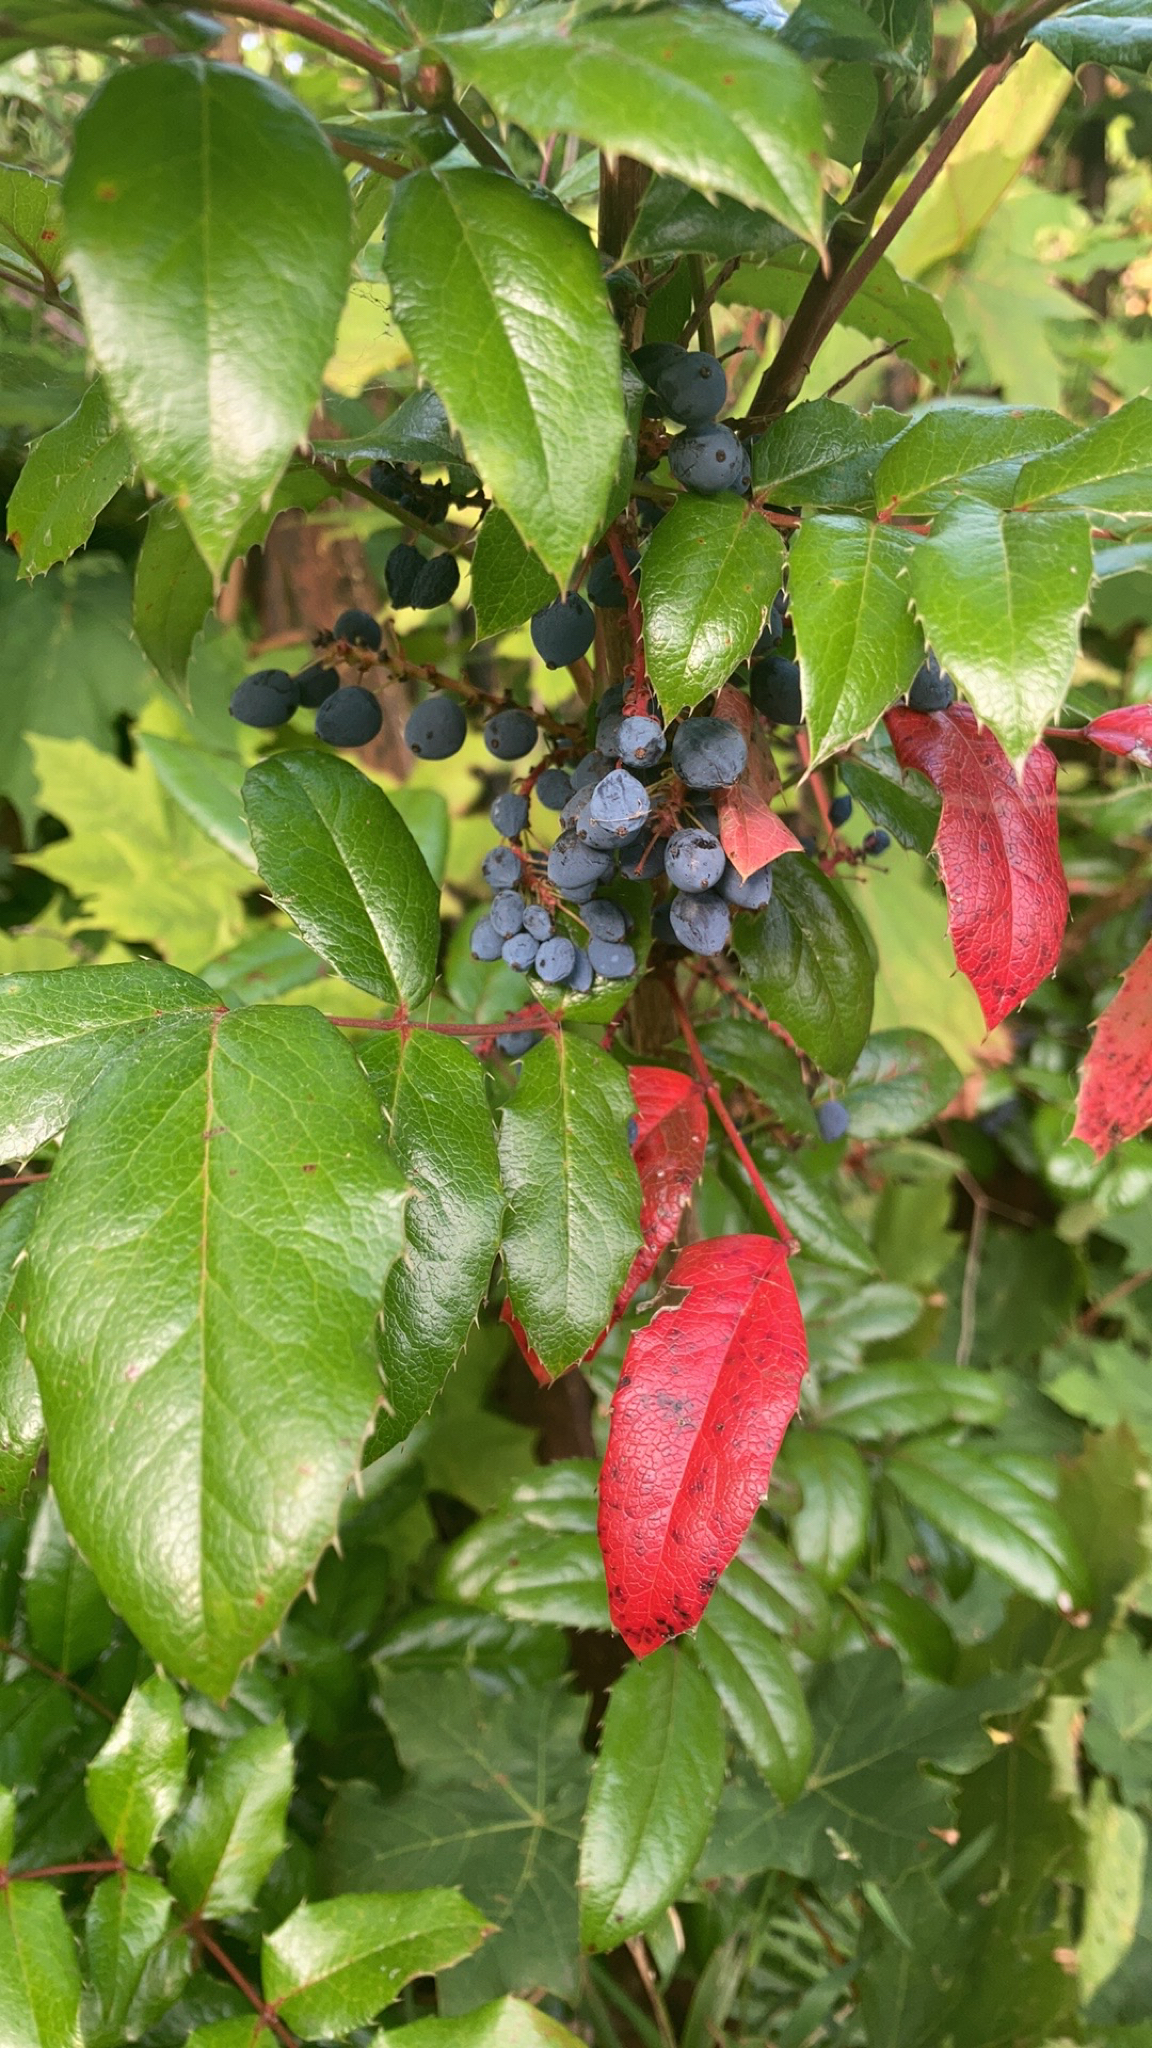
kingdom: Plantae
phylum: Tracheophyta
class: Magnoliopsida
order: Ranunculales
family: Berberidaceae
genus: Mahonia
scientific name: Mahonia aquifolium
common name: Oregon-grape
